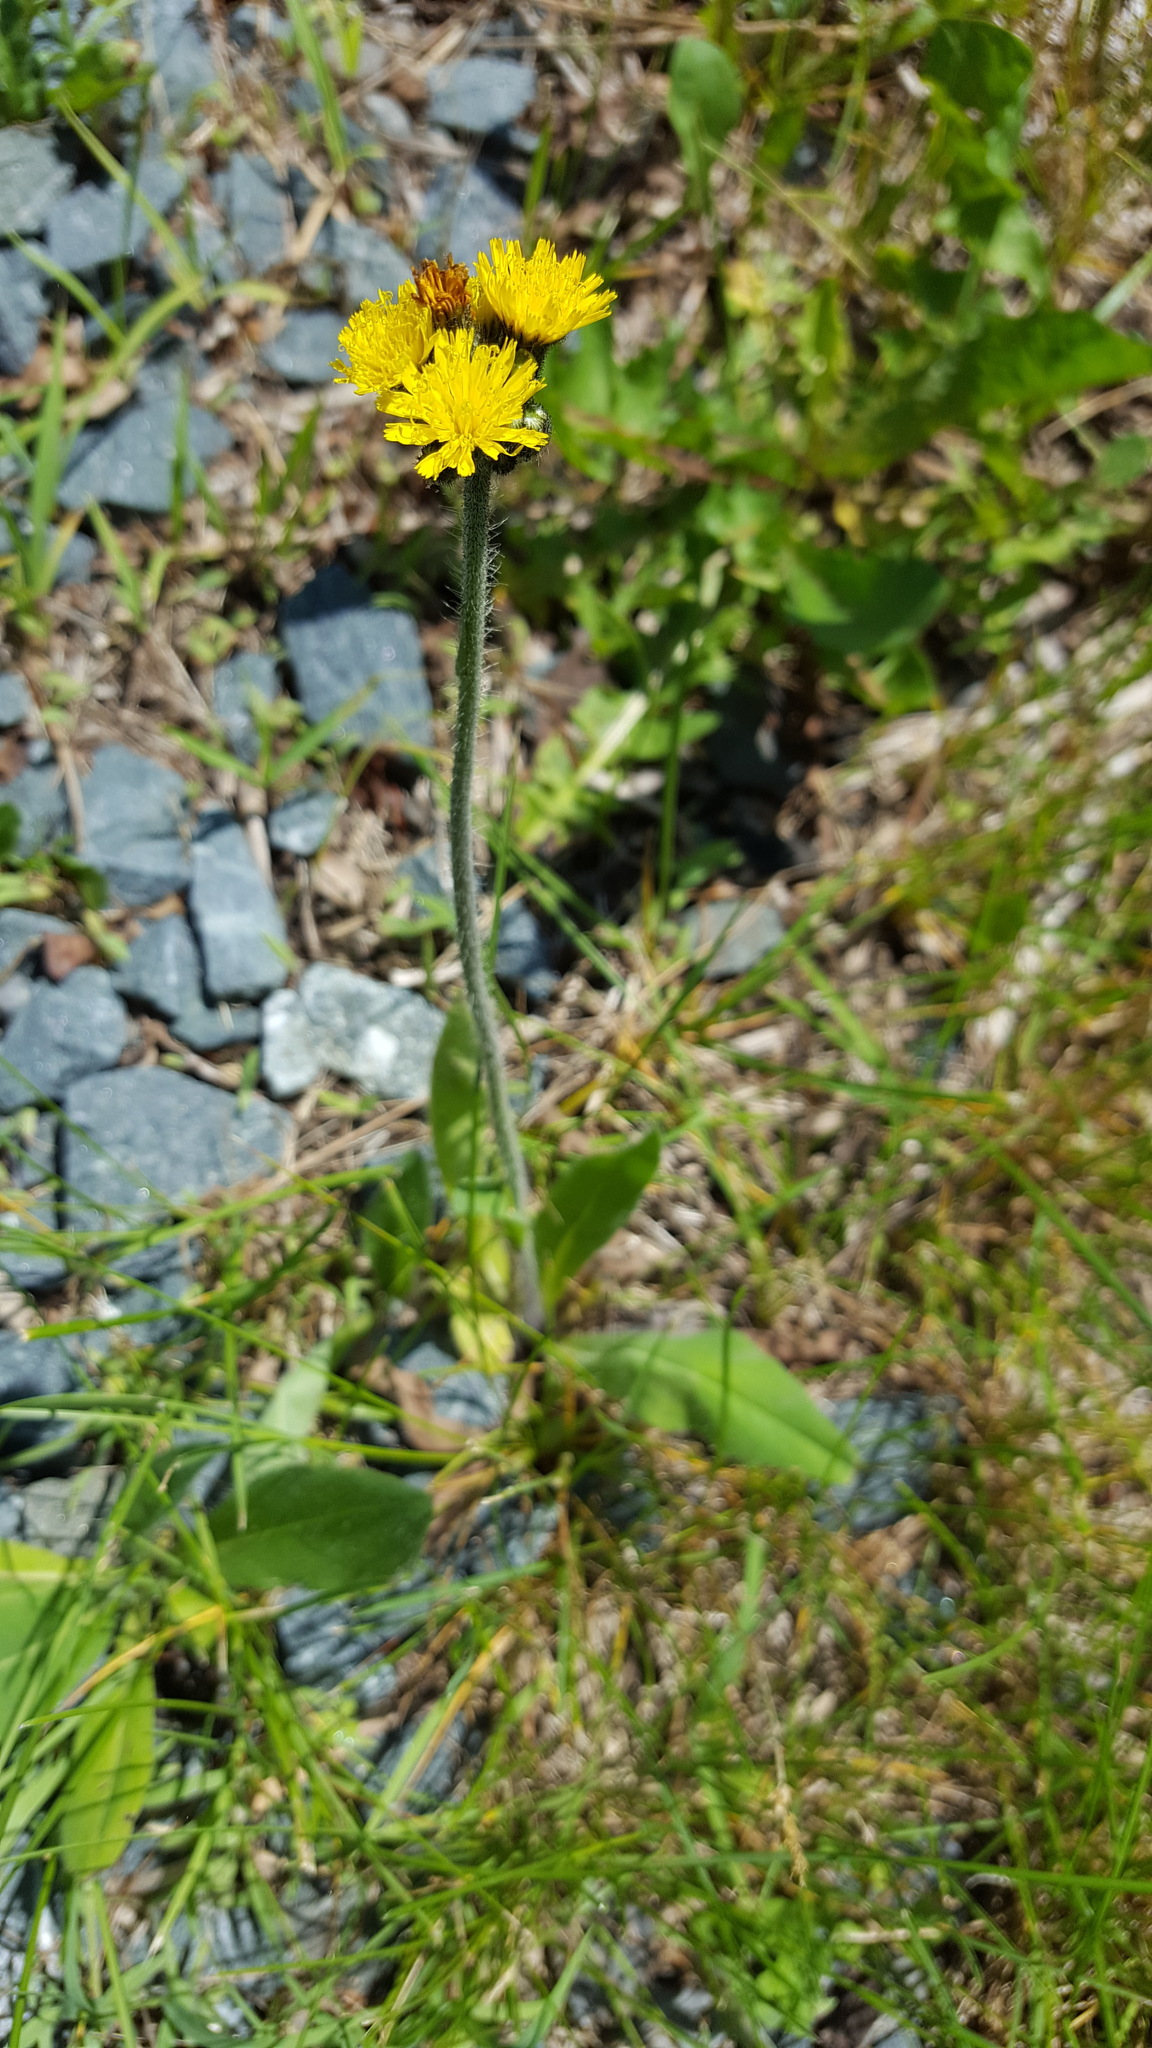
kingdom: Plantae
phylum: Tracheophyta
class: Magnoliopsida
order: Asterales
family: Asteraceae
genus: Pilosella
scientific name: Pilosella caespitosa
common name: Yellow fox-and-cubs
